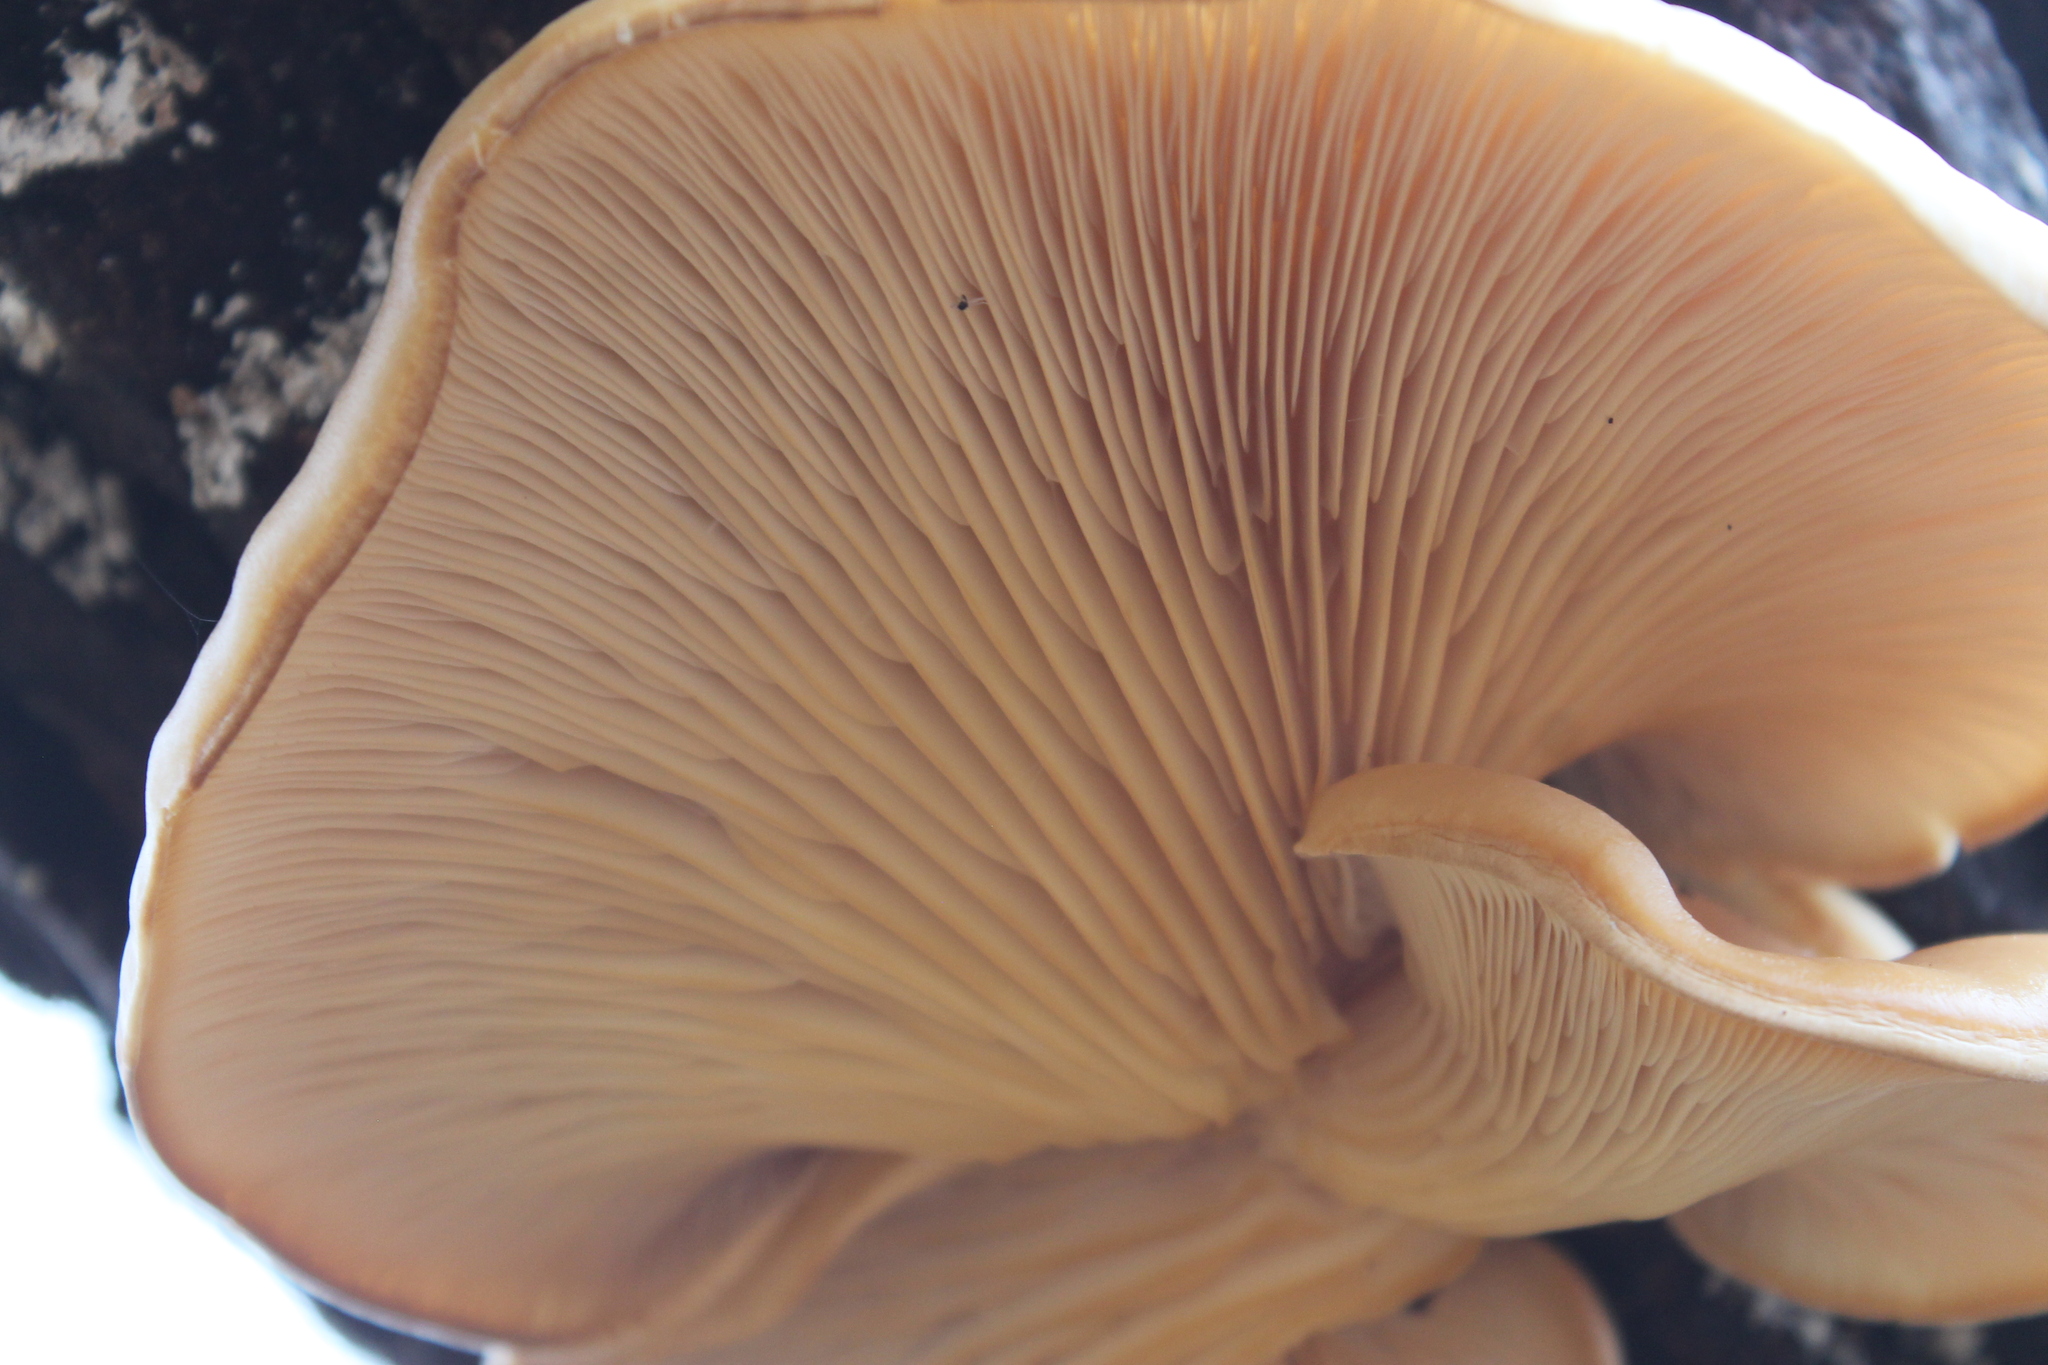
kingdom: Fungi
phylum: Basidiomycota
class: Agaricomycetes
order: Agaricales
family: Pleurotaceae
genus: Pleurotus
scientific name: Pleurotus ostreatus
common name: Oyster mushroom
